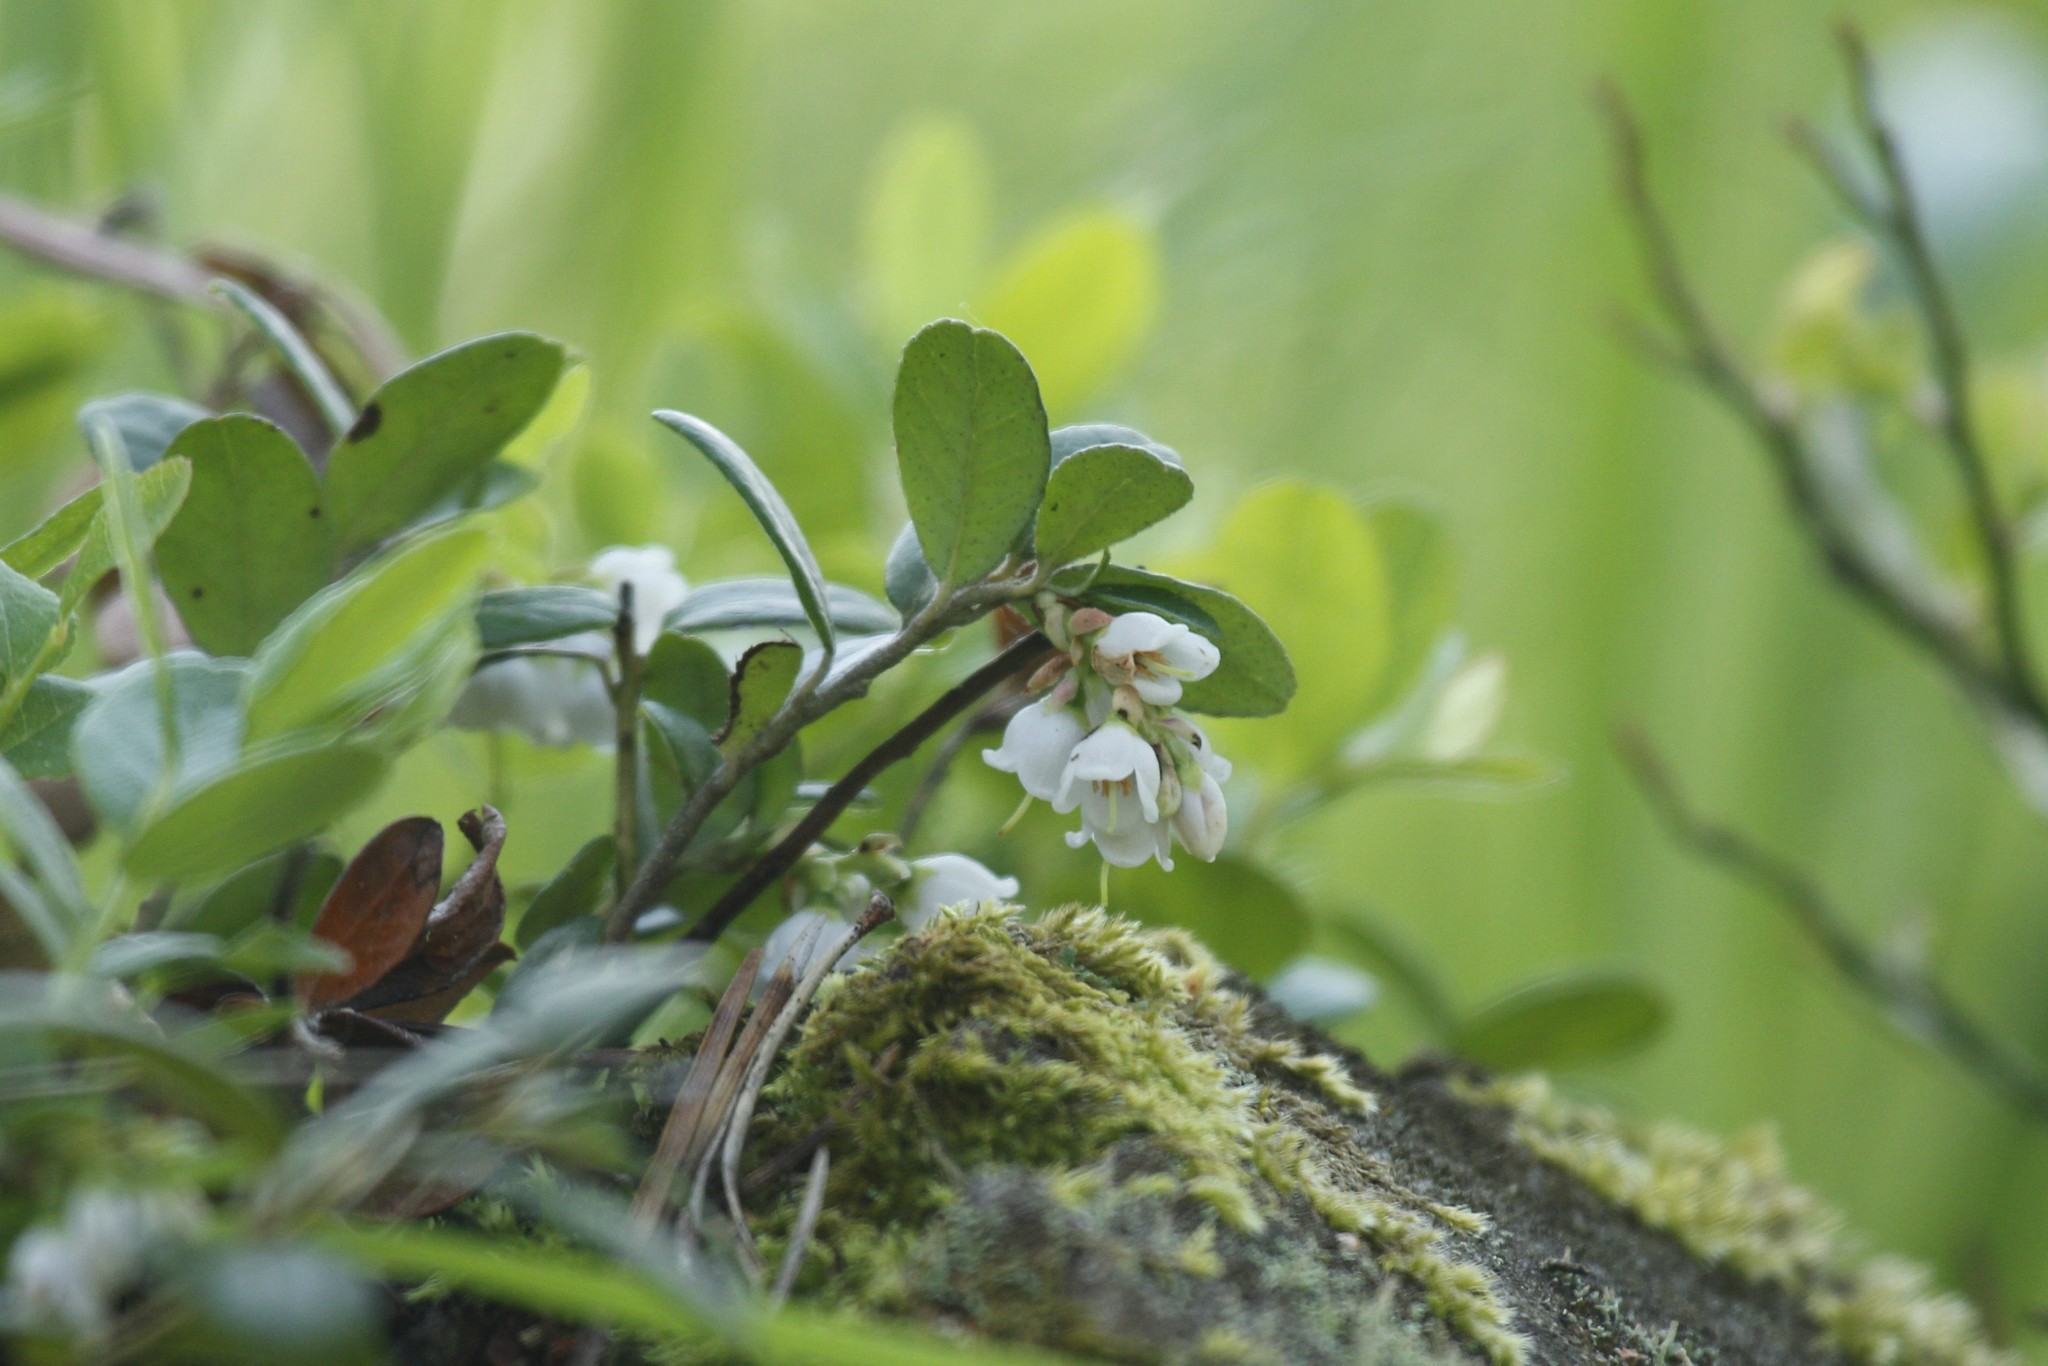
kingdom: Plantae
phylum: Tracheophyta
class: Magnoliopsida
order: Ericales
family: Ericaceae
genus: Vaccinium
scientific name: Vaccinium vitis-idaea
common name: Cowberry
